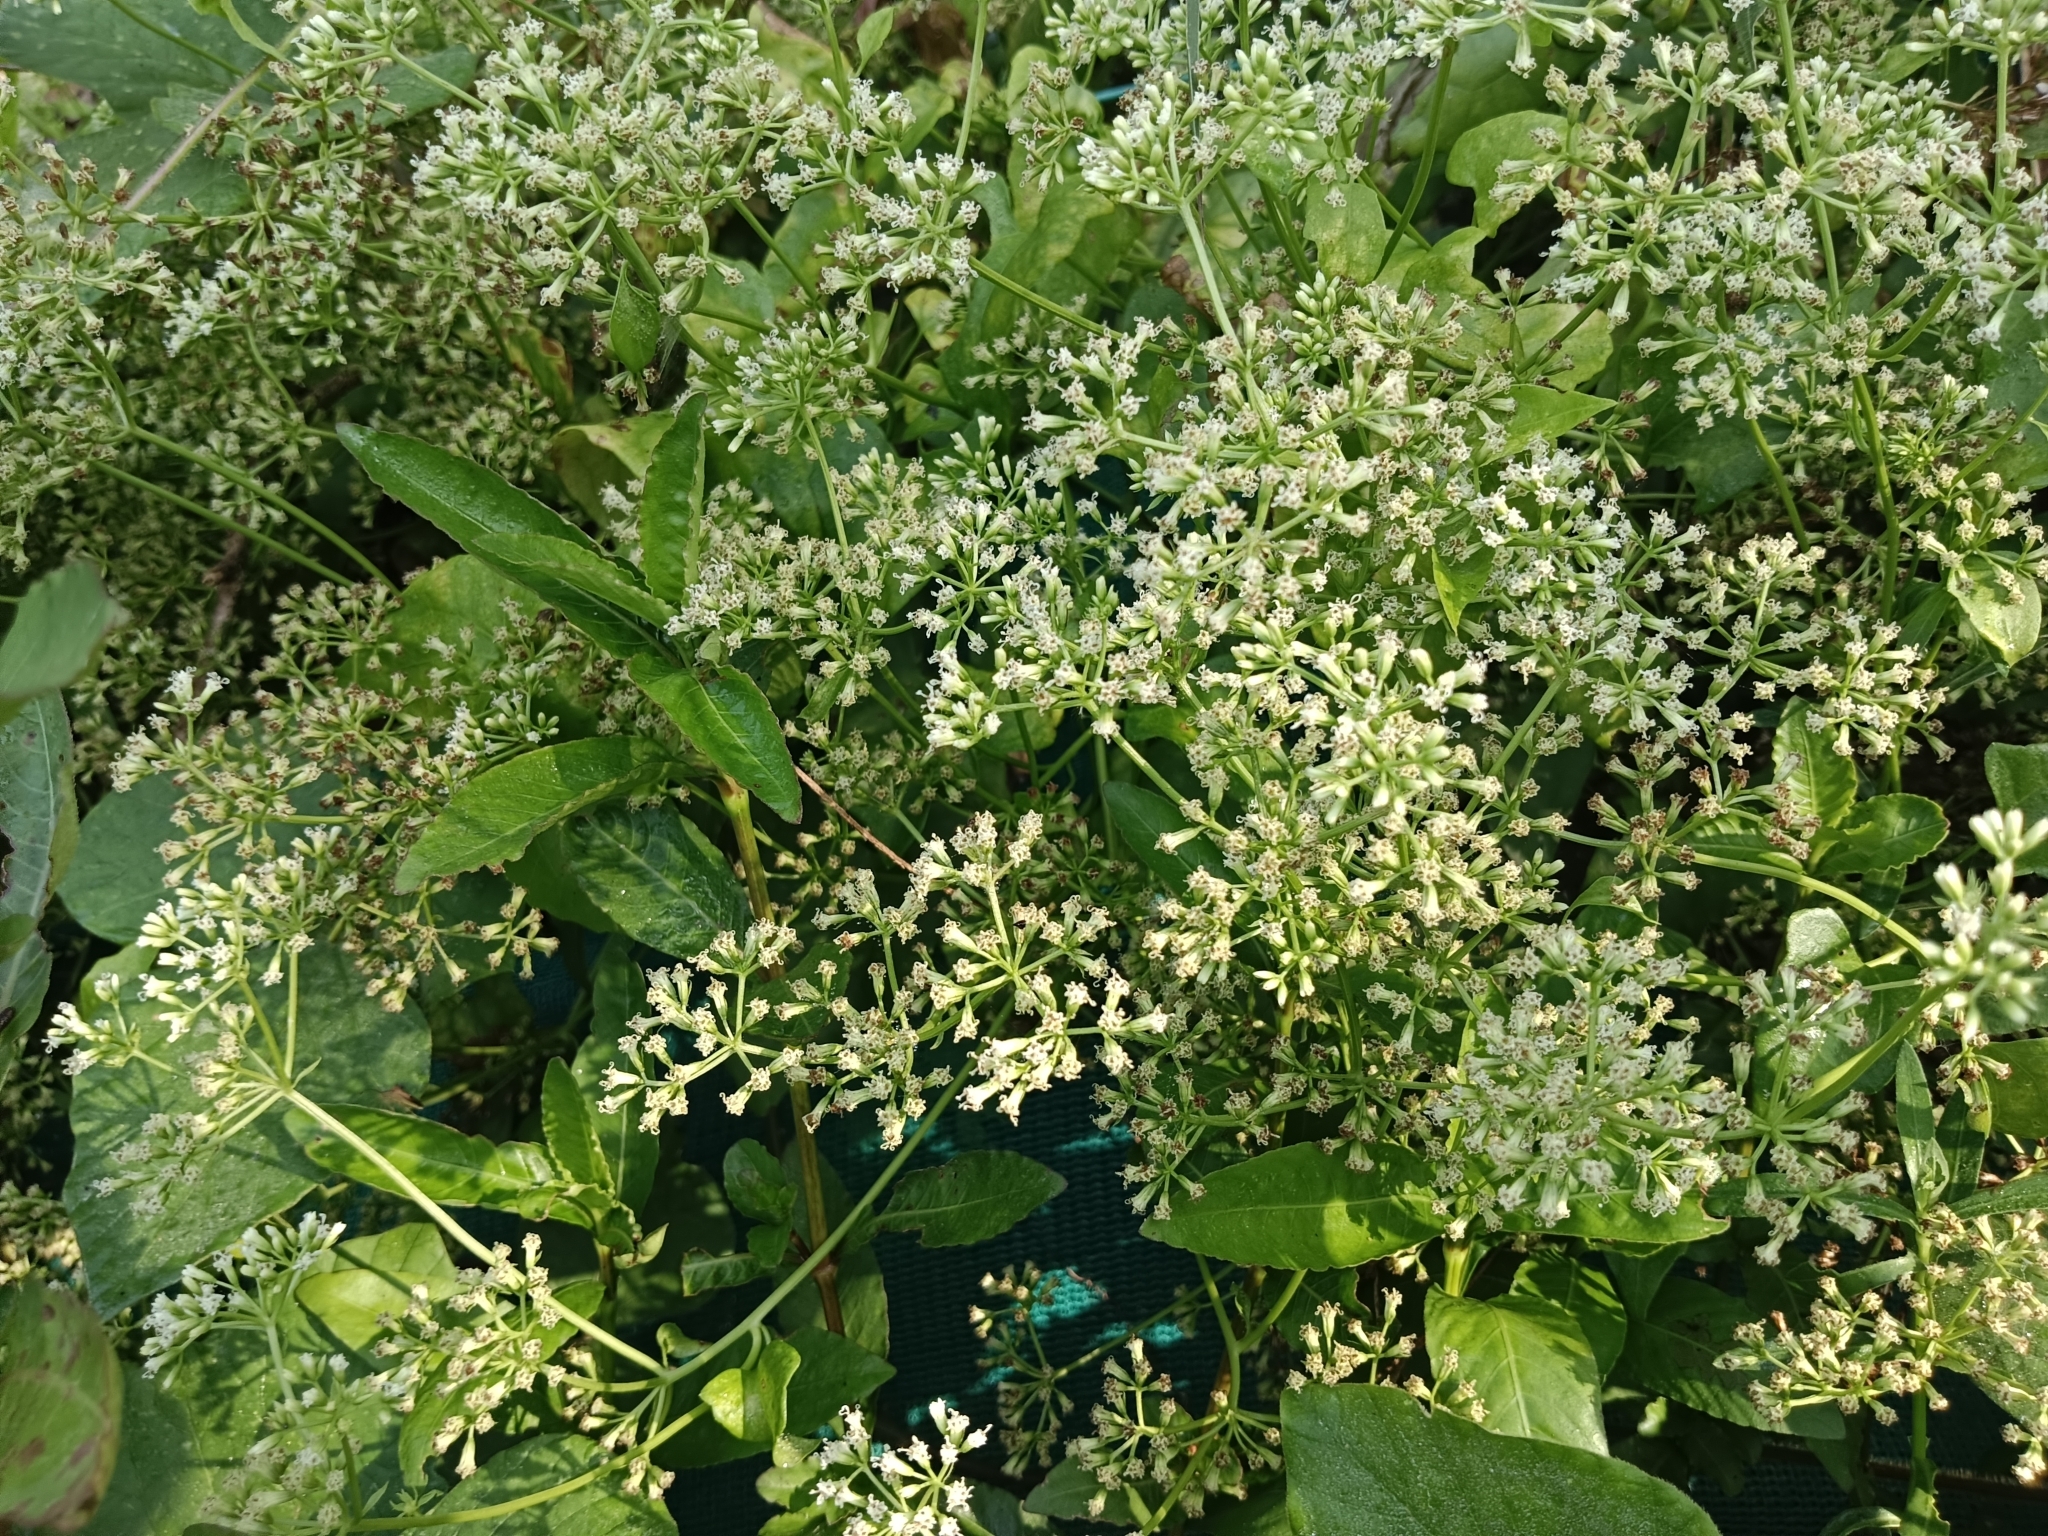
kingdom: Plantae
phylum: Tracheophyta
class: Magnoliopsida
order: Asterales
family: Asteraceae
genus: Mikania
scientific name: Mikania micrantha
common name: Mile-a-minute
